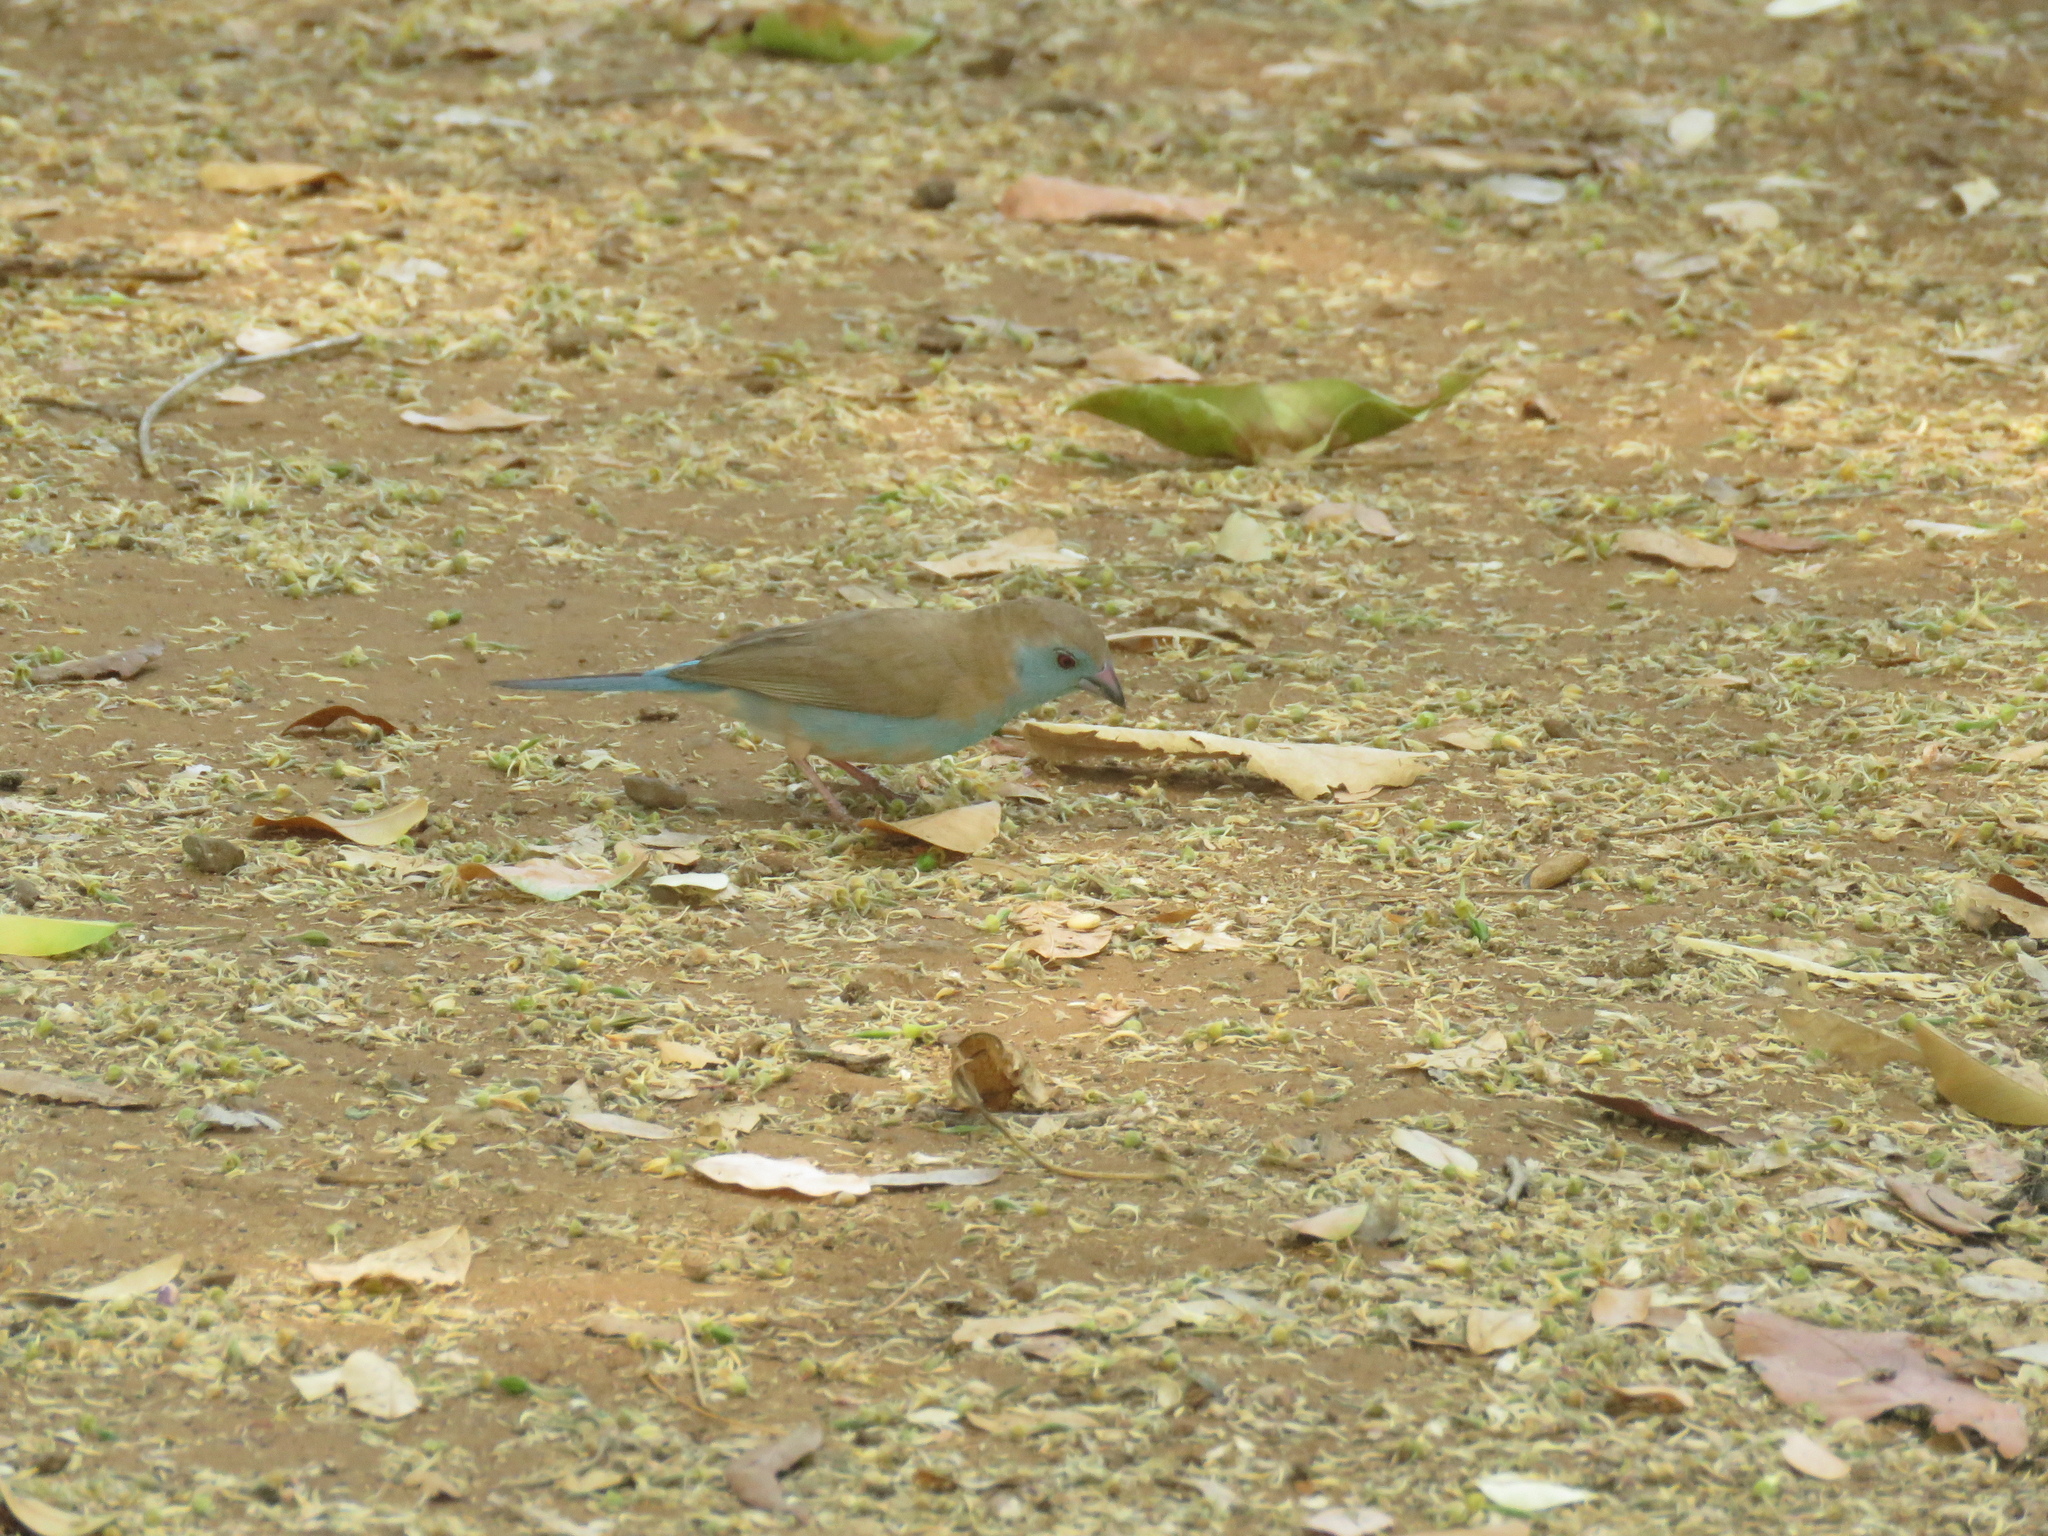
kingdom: Animalia
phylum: Chordata
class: Aves
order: Passeriformes
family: Estrildidae
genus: Uraeginthus
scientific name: Uraeginthus angolensis
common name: Blue waxbill
